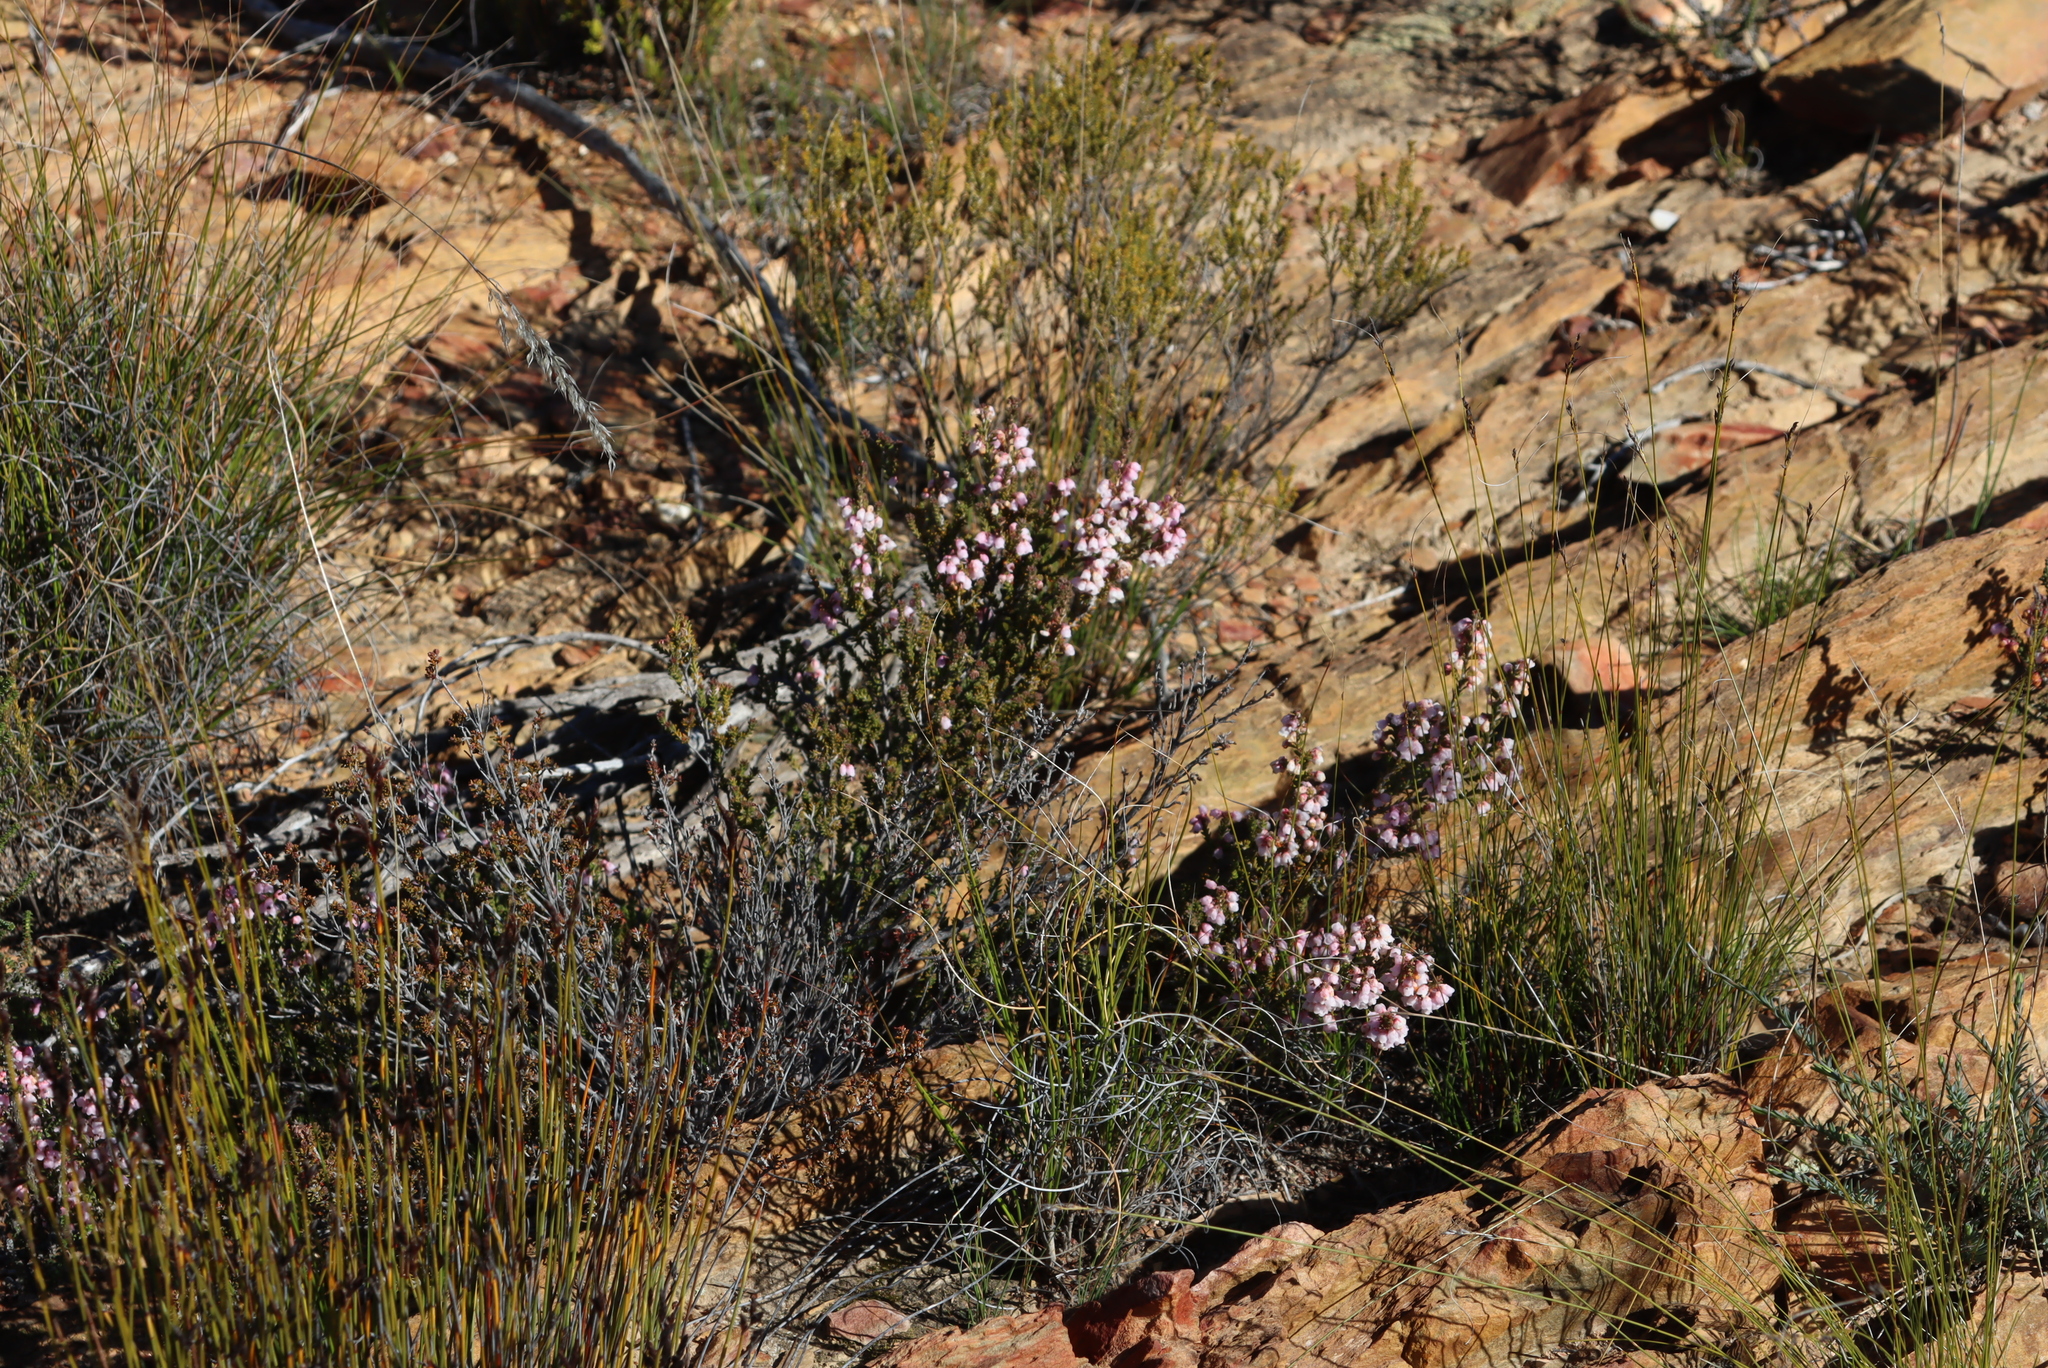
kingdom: Plantae
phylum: Tracheophyta
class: Magnoliopsida
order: Ericales
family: Ericaceae
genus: Erica
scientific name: Erica umbelliflora
